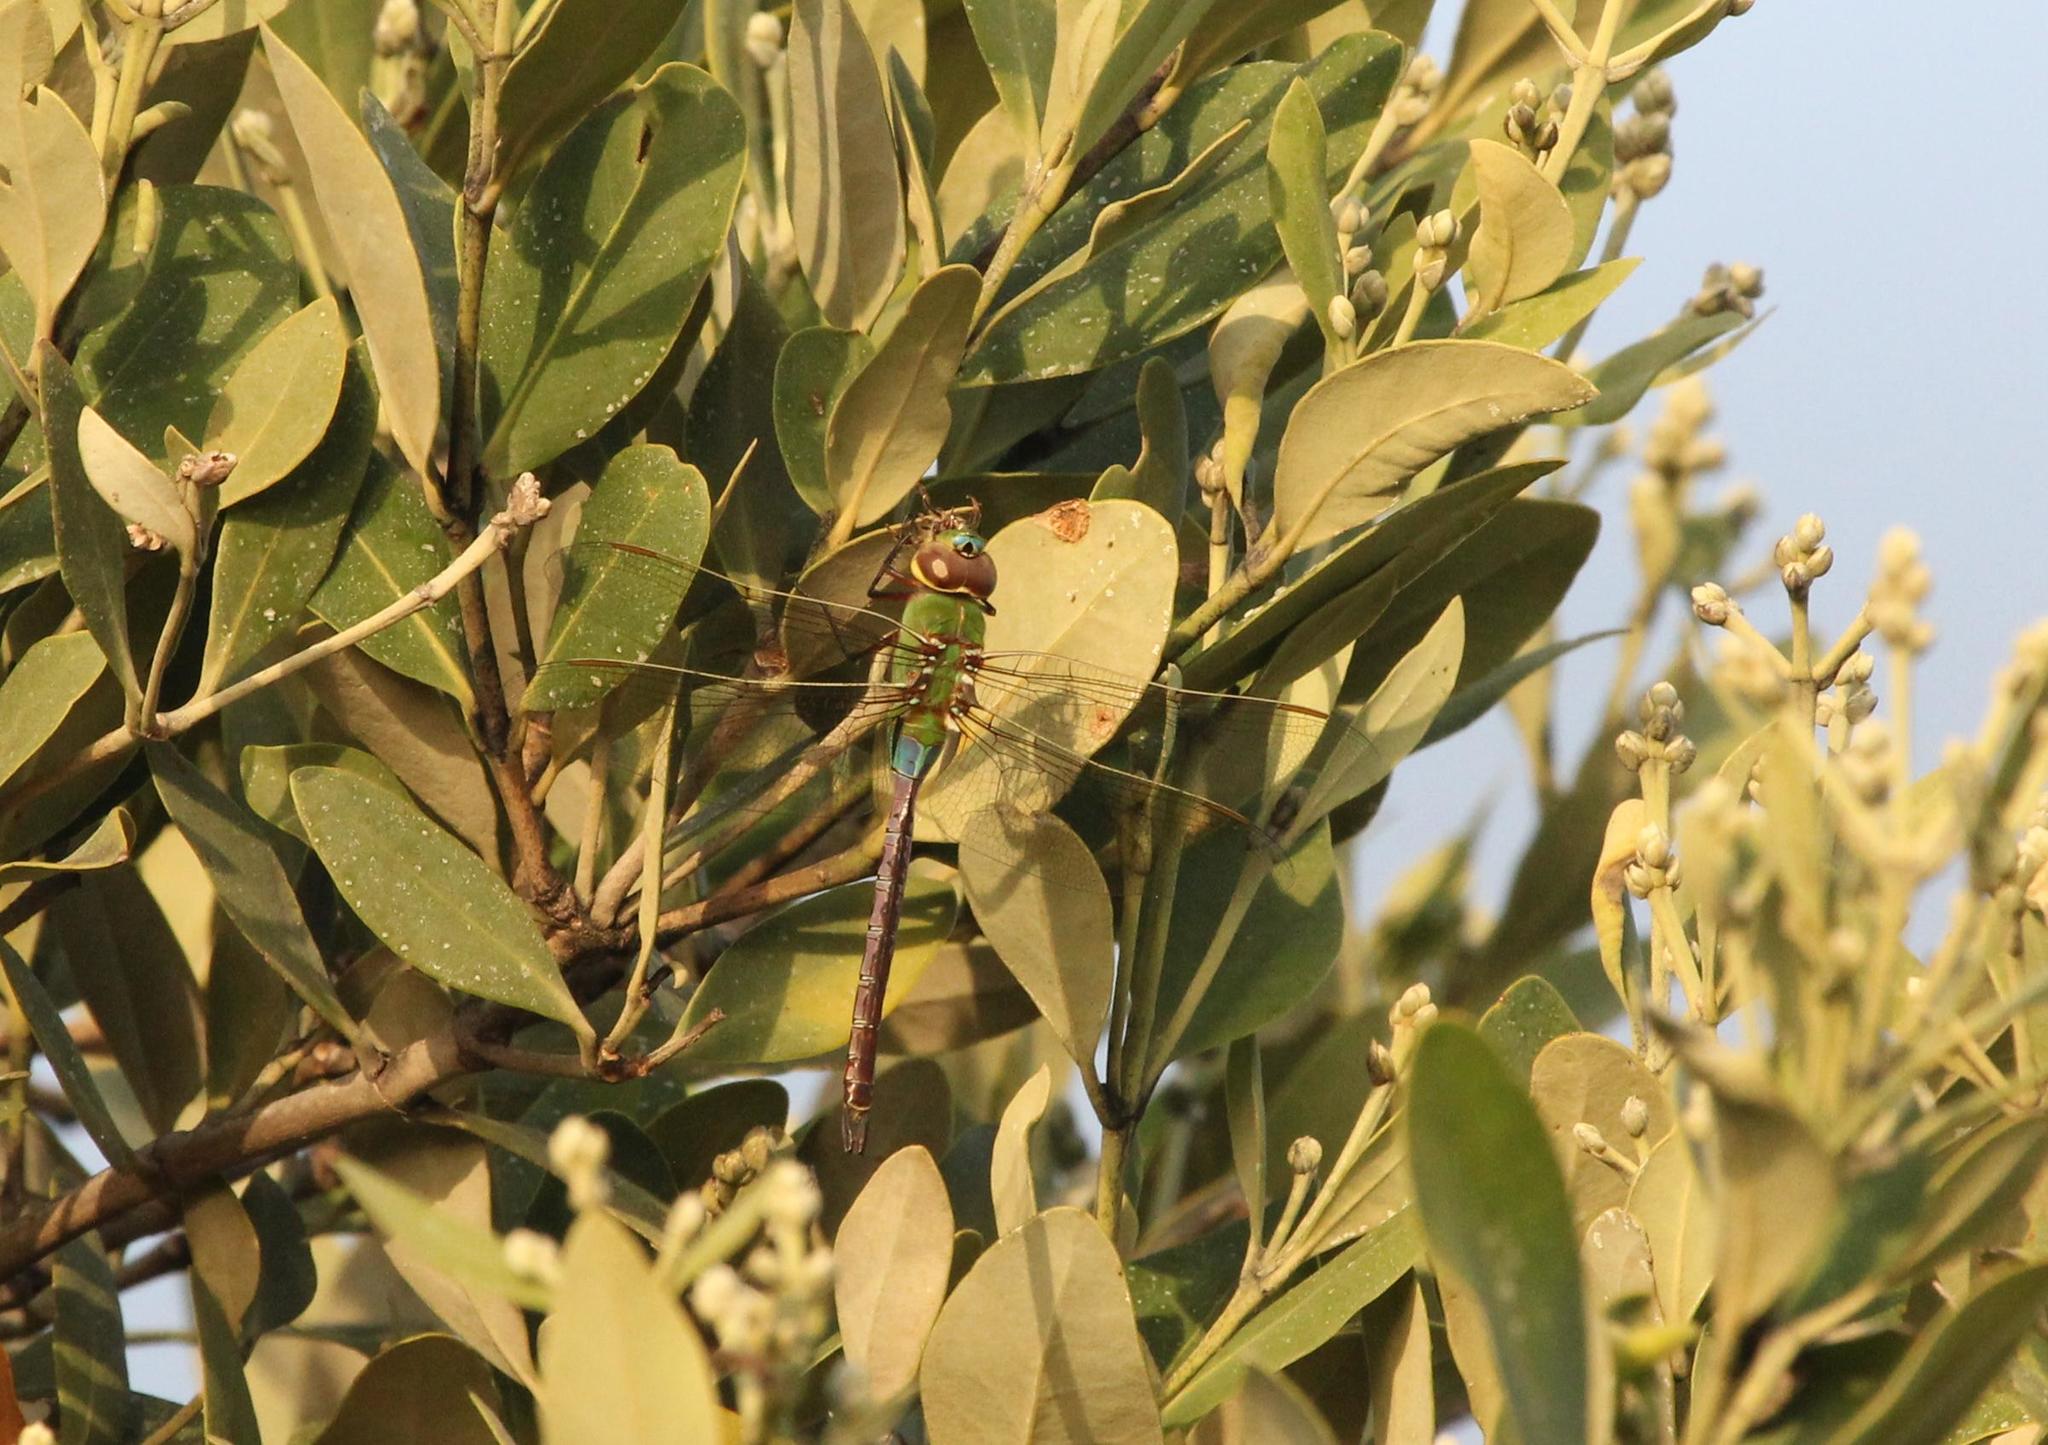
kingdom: Animalia
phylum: Arthropoda
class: Insecta
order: Odonata
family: Aeshnidae
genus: Anax
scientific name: Anax junius
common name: Common green darner
